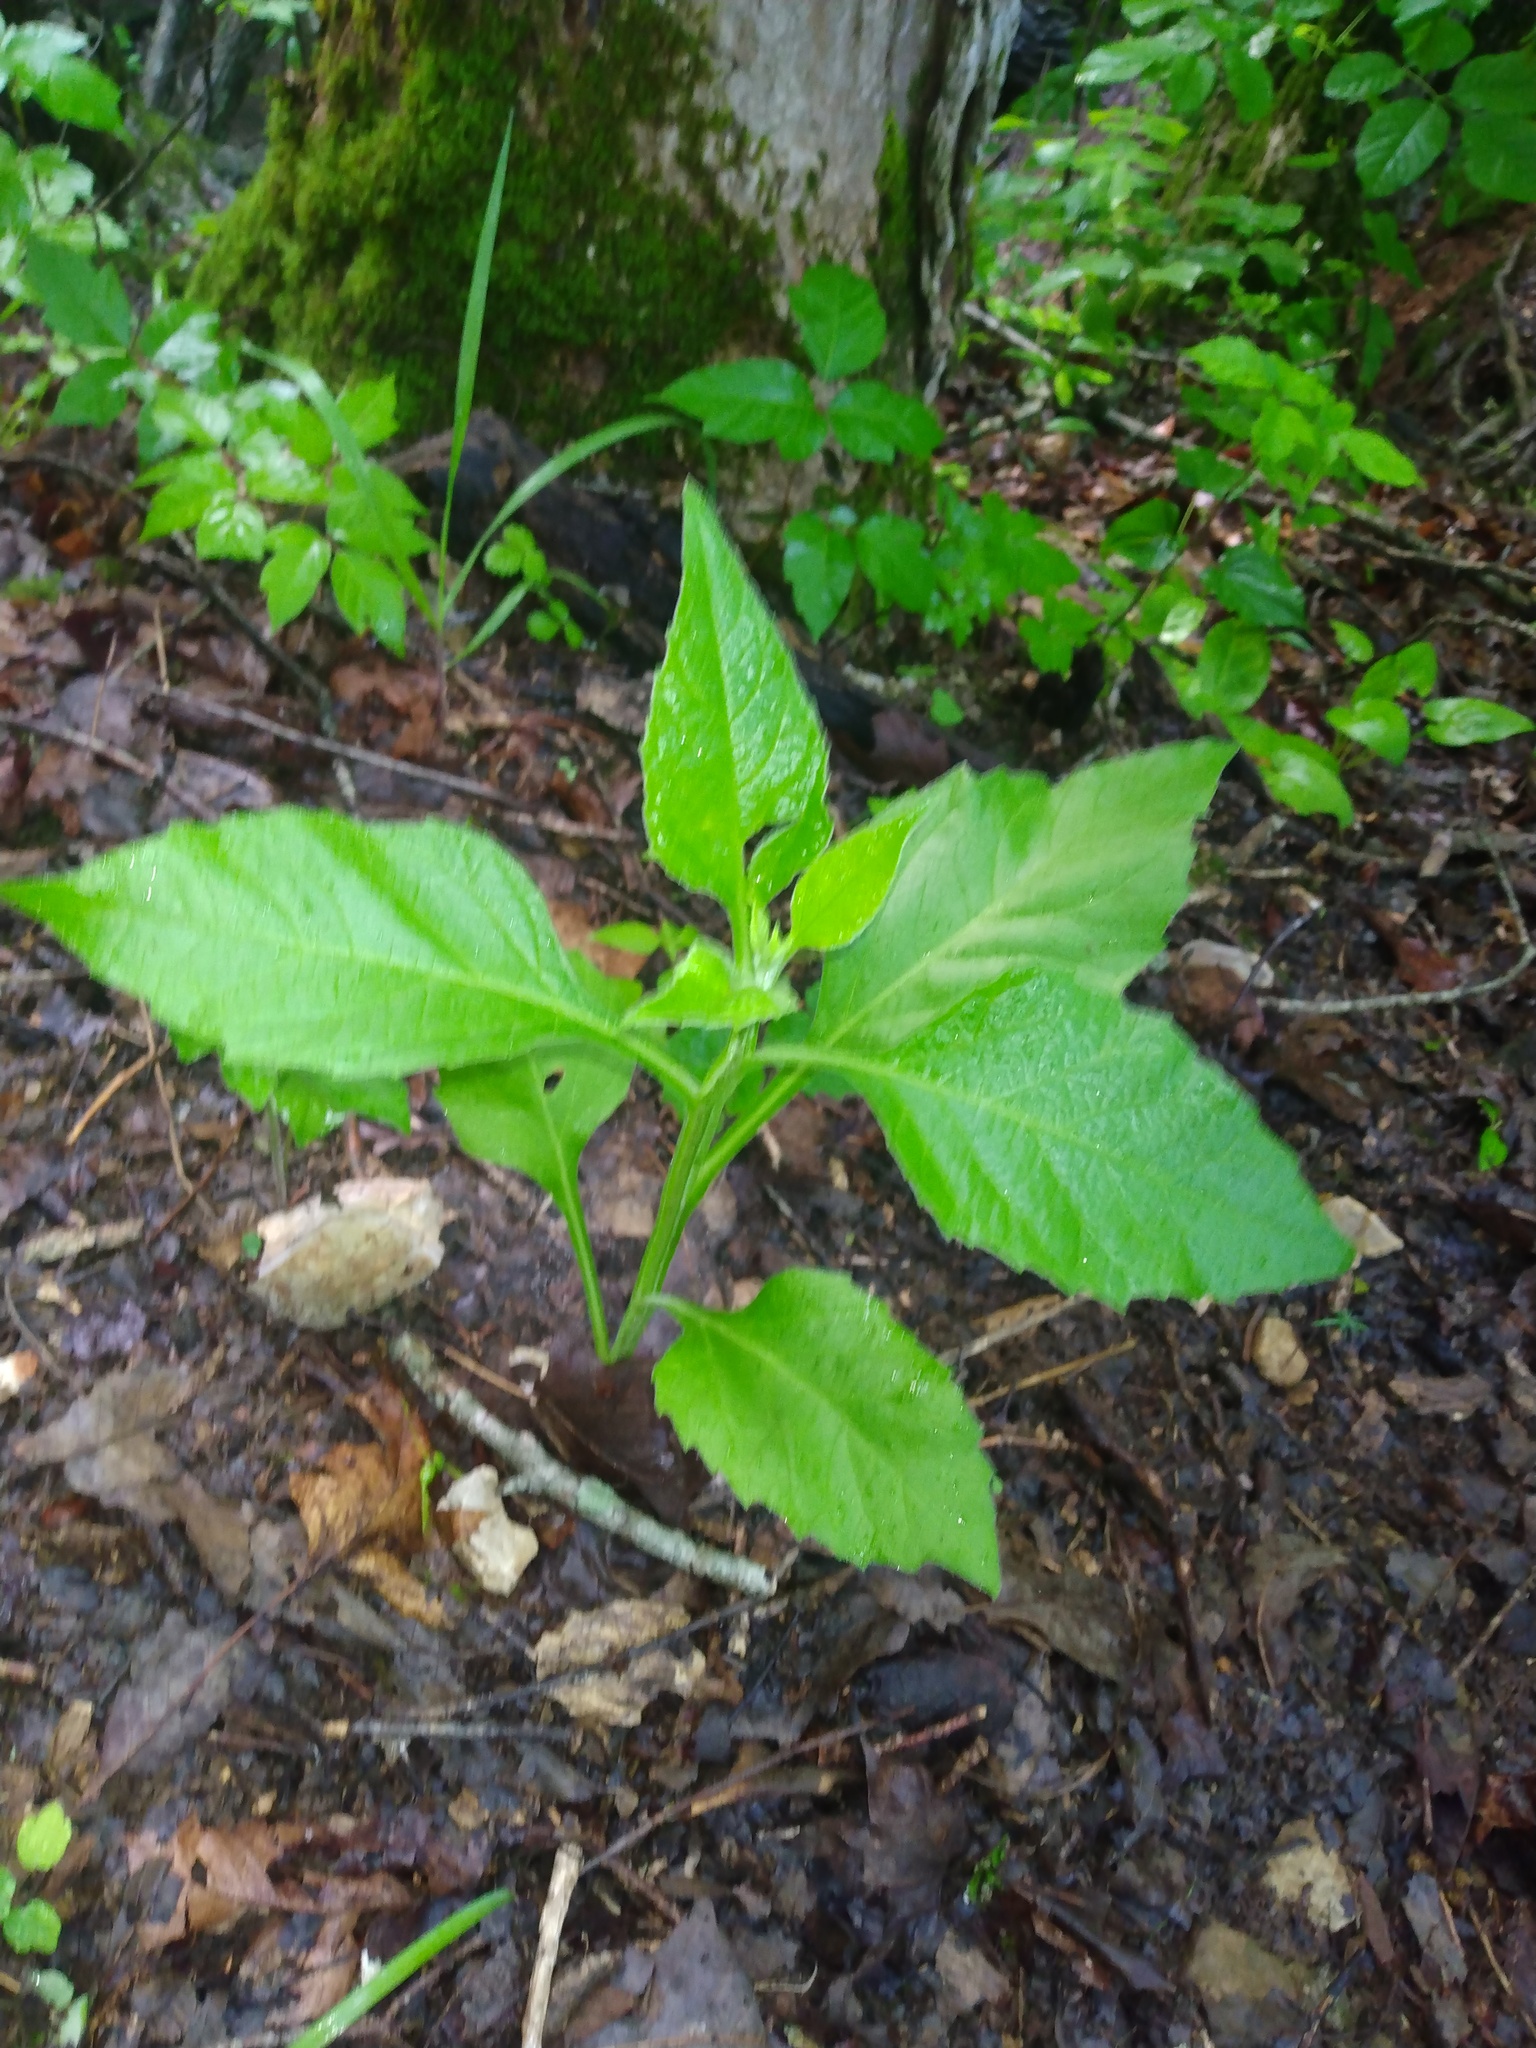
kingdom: Plantae
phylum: Tracheophyta
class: Magnoliopsida
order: Asterales
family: Asteraceae
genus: Verbesina
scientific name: Verbesina virginica
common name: Frostweed
